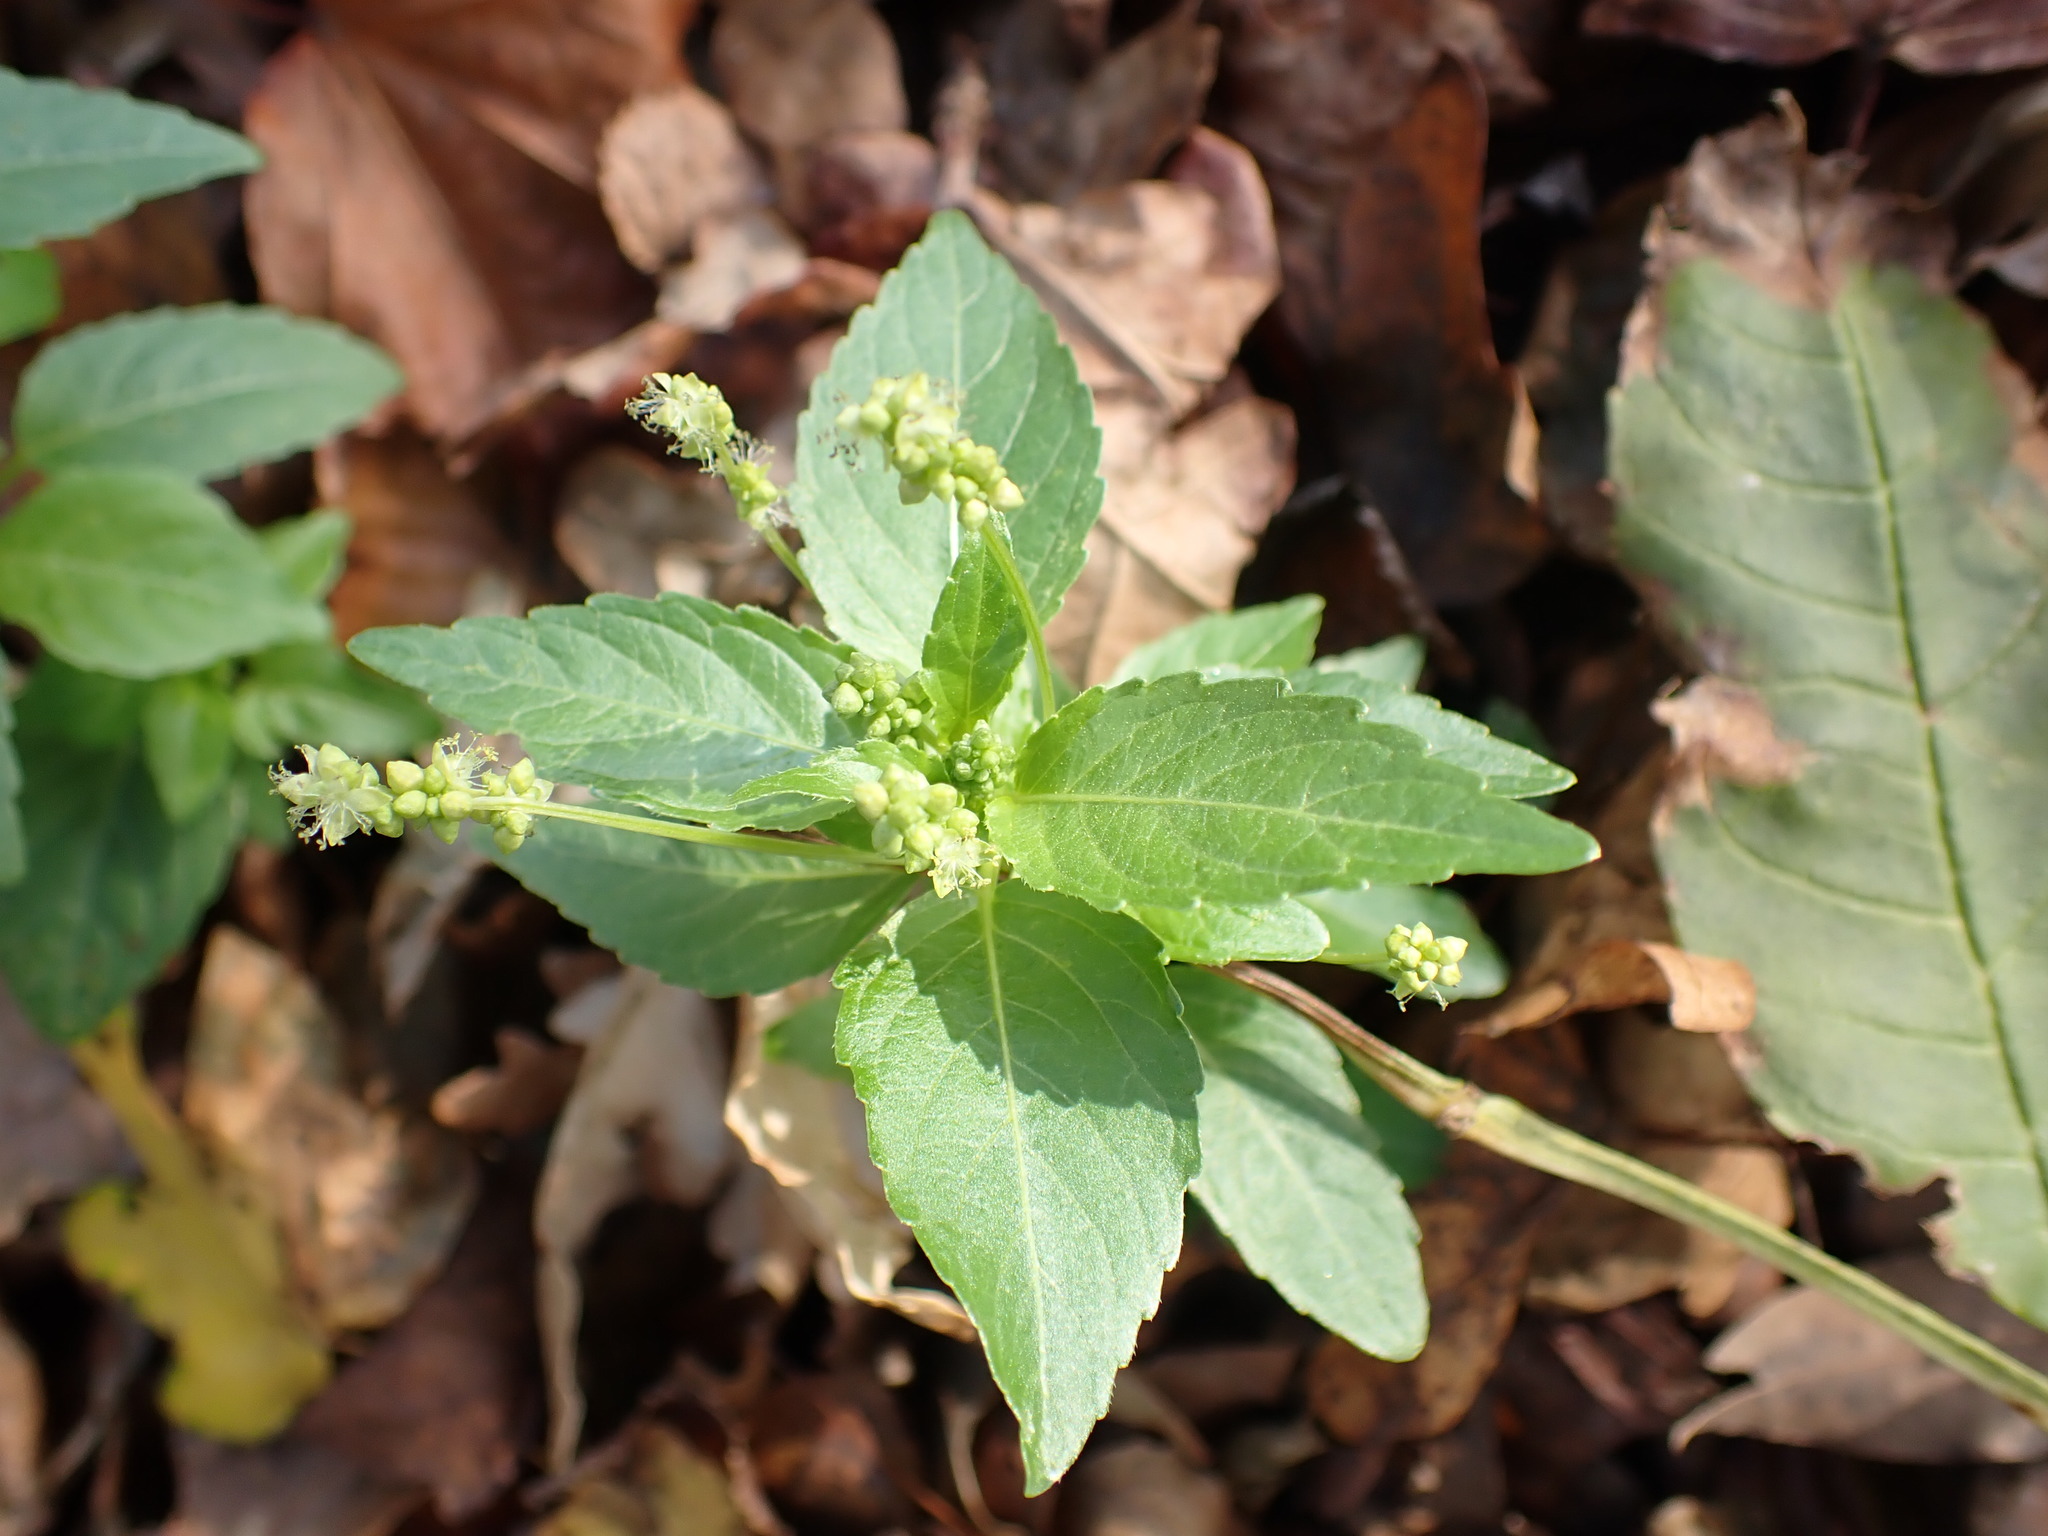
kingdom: Plantae
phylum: Tracheophyta
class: Magnoliopsida
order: Malpighiales
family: Euphorbiaceae
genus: Mercurialis
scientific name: Mercurialis annua
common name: Annual mercury
